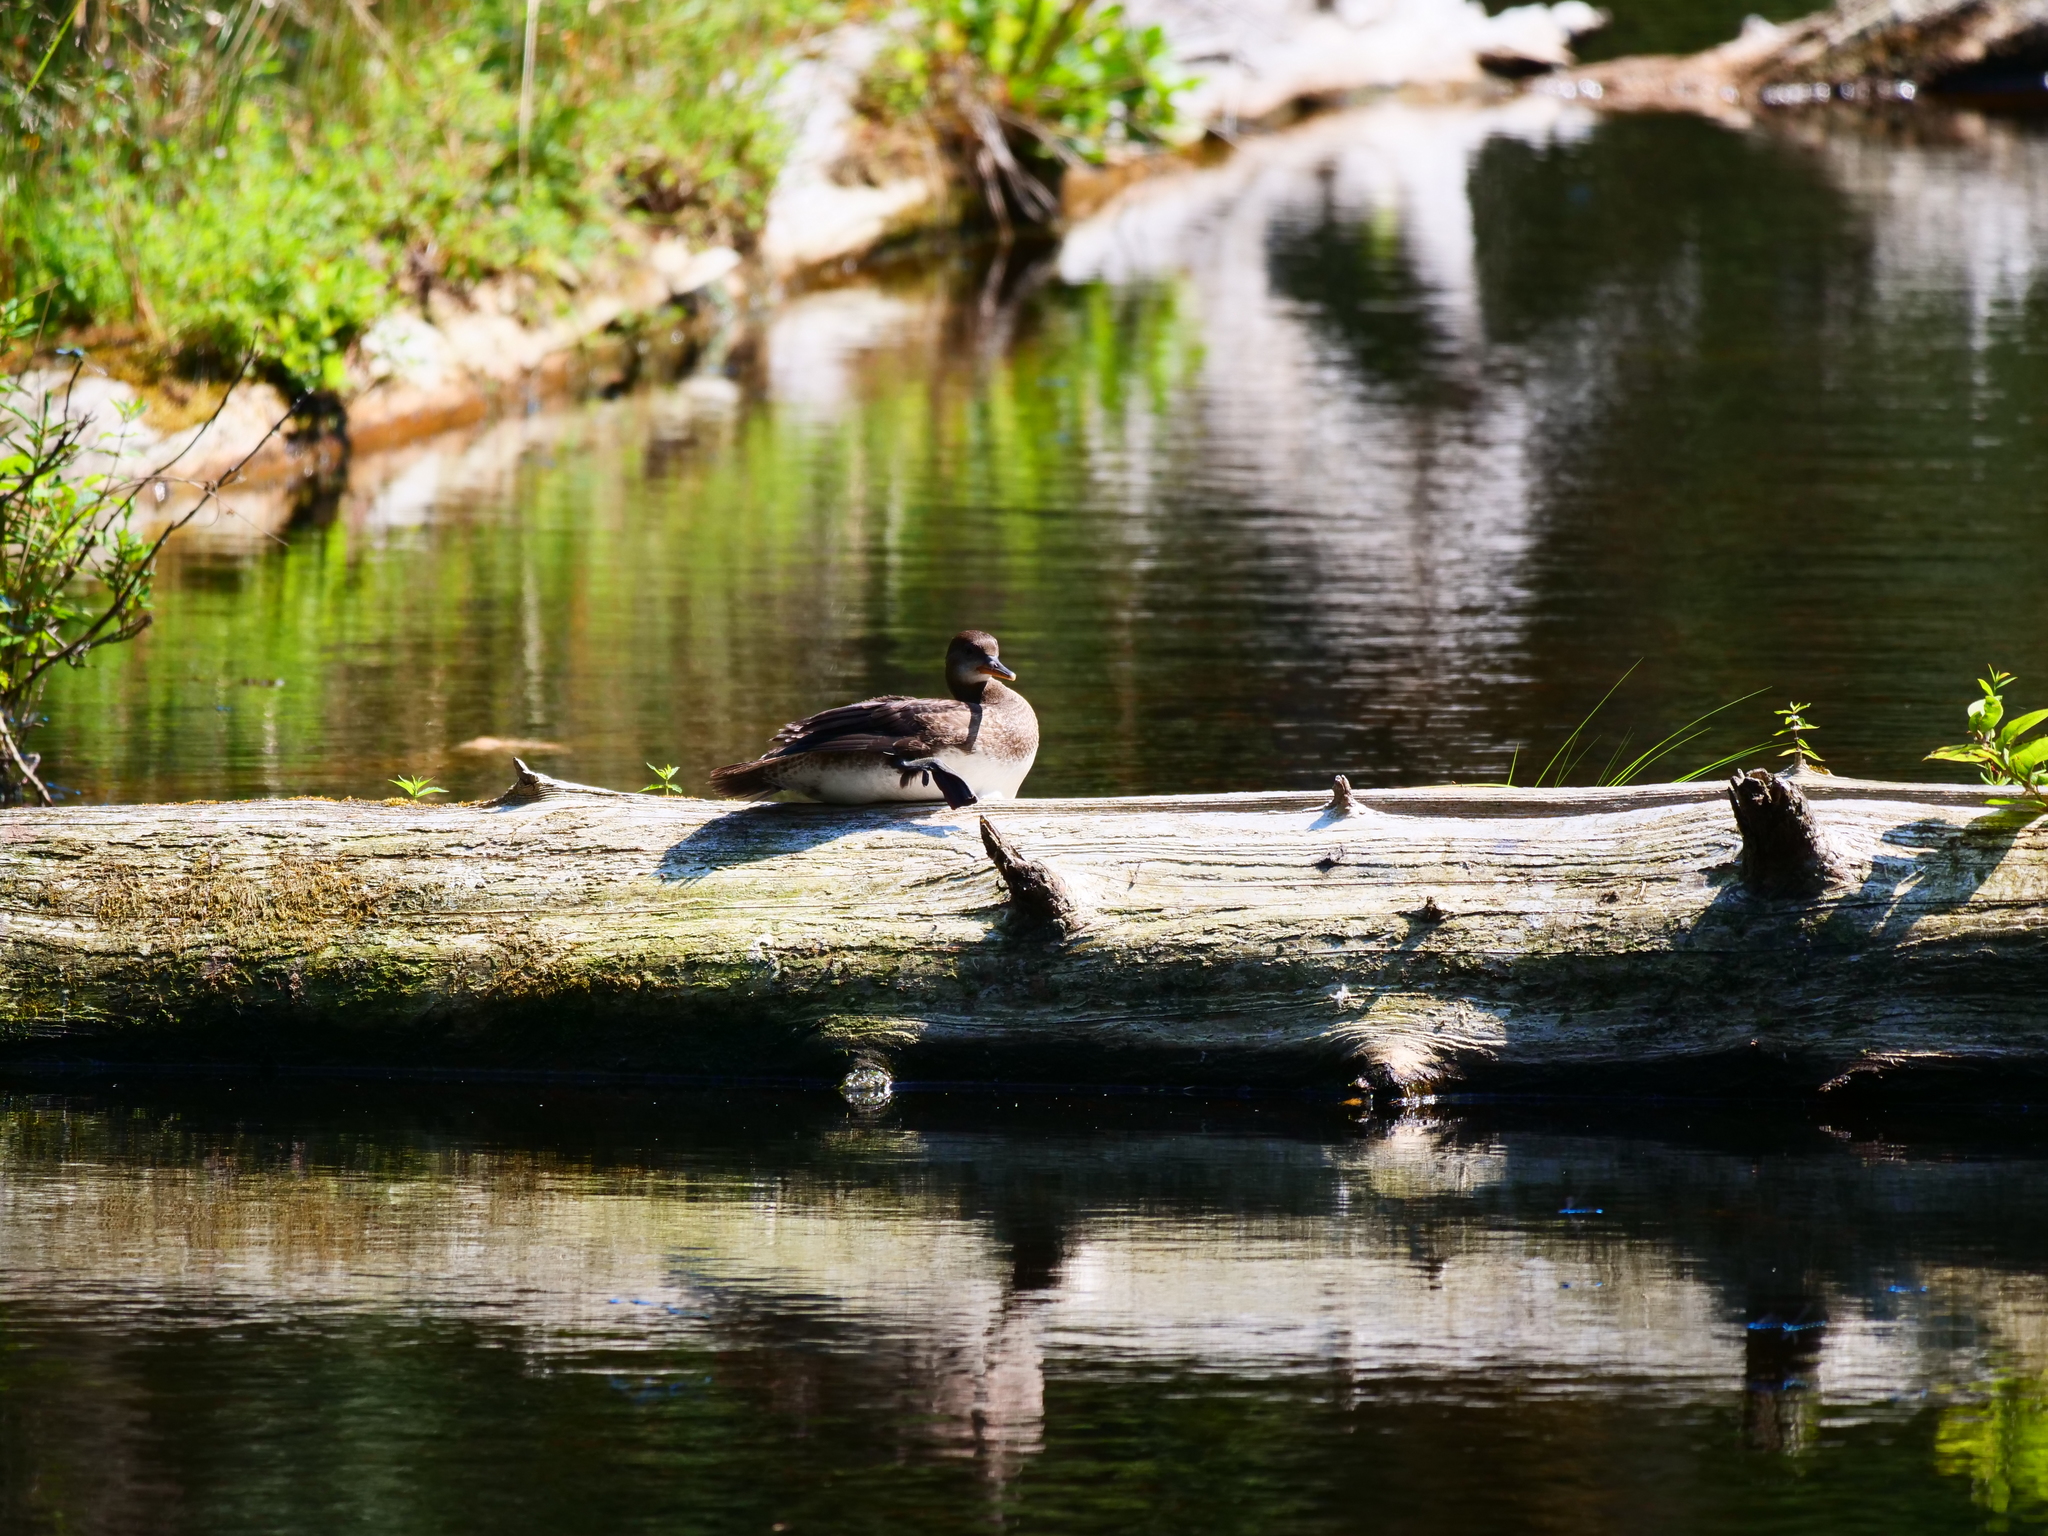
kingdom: Animalia
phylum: Chordata
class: Aves
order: Anseriformes
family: Anatidae
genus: Lophodytes
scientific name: Lophodytes cucullatus
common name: Hooded merganser
